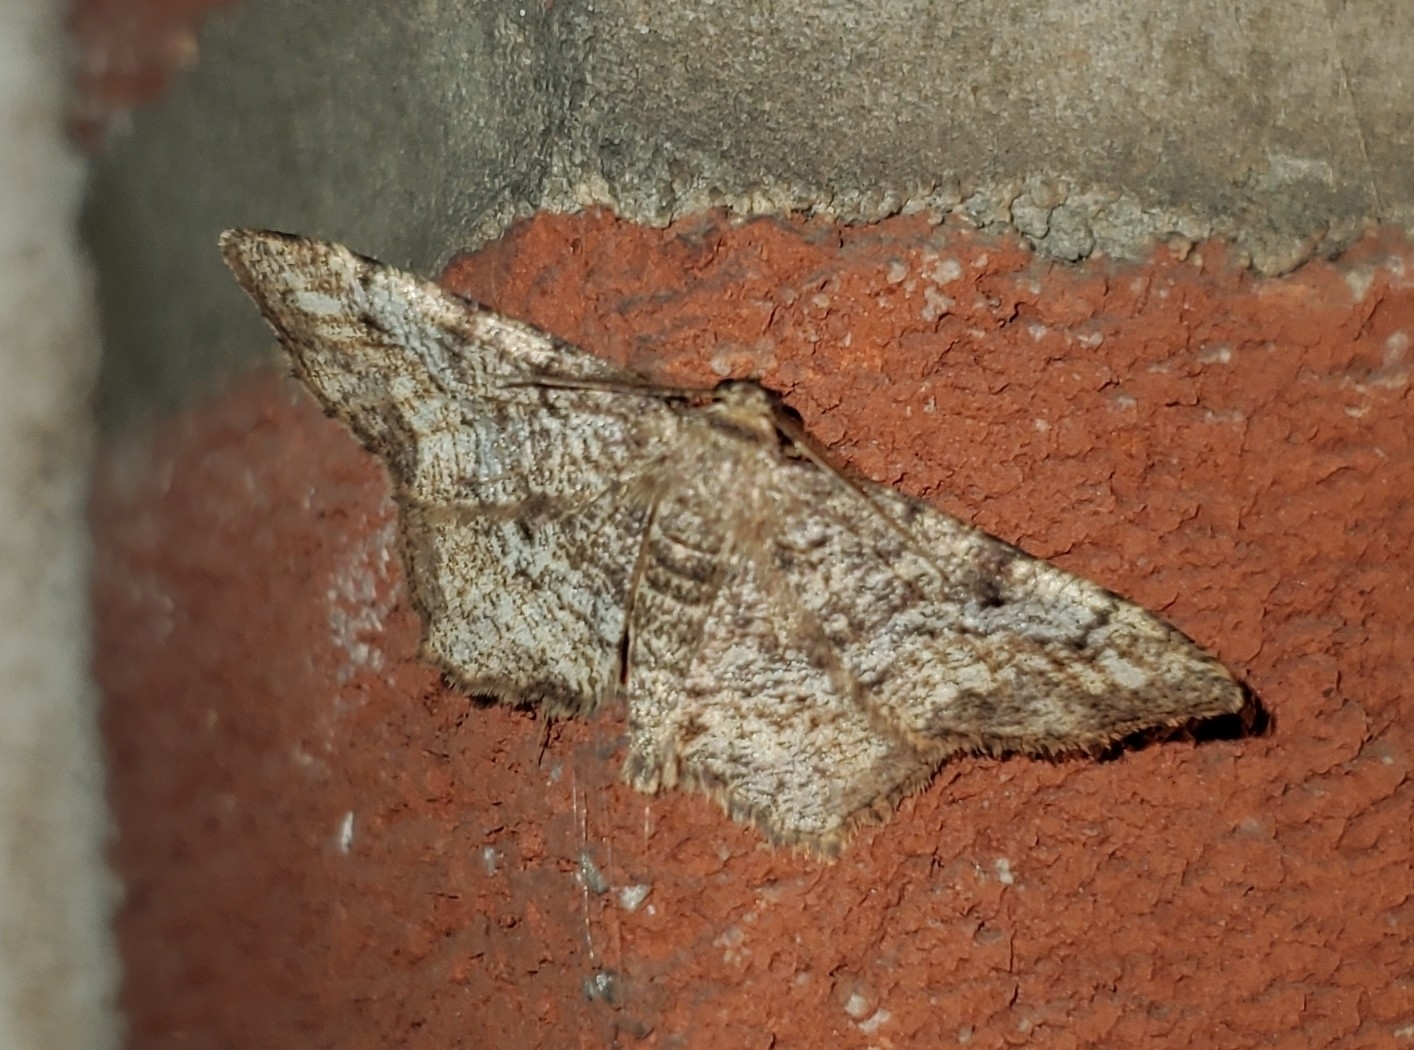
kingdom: Animalia
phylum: Arthropoda
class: Insecta
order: Lepidoptera
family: Geometridae
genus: Hypagyrtis
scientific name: Hypagyrtis unipunctata
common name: One-spotted variant
